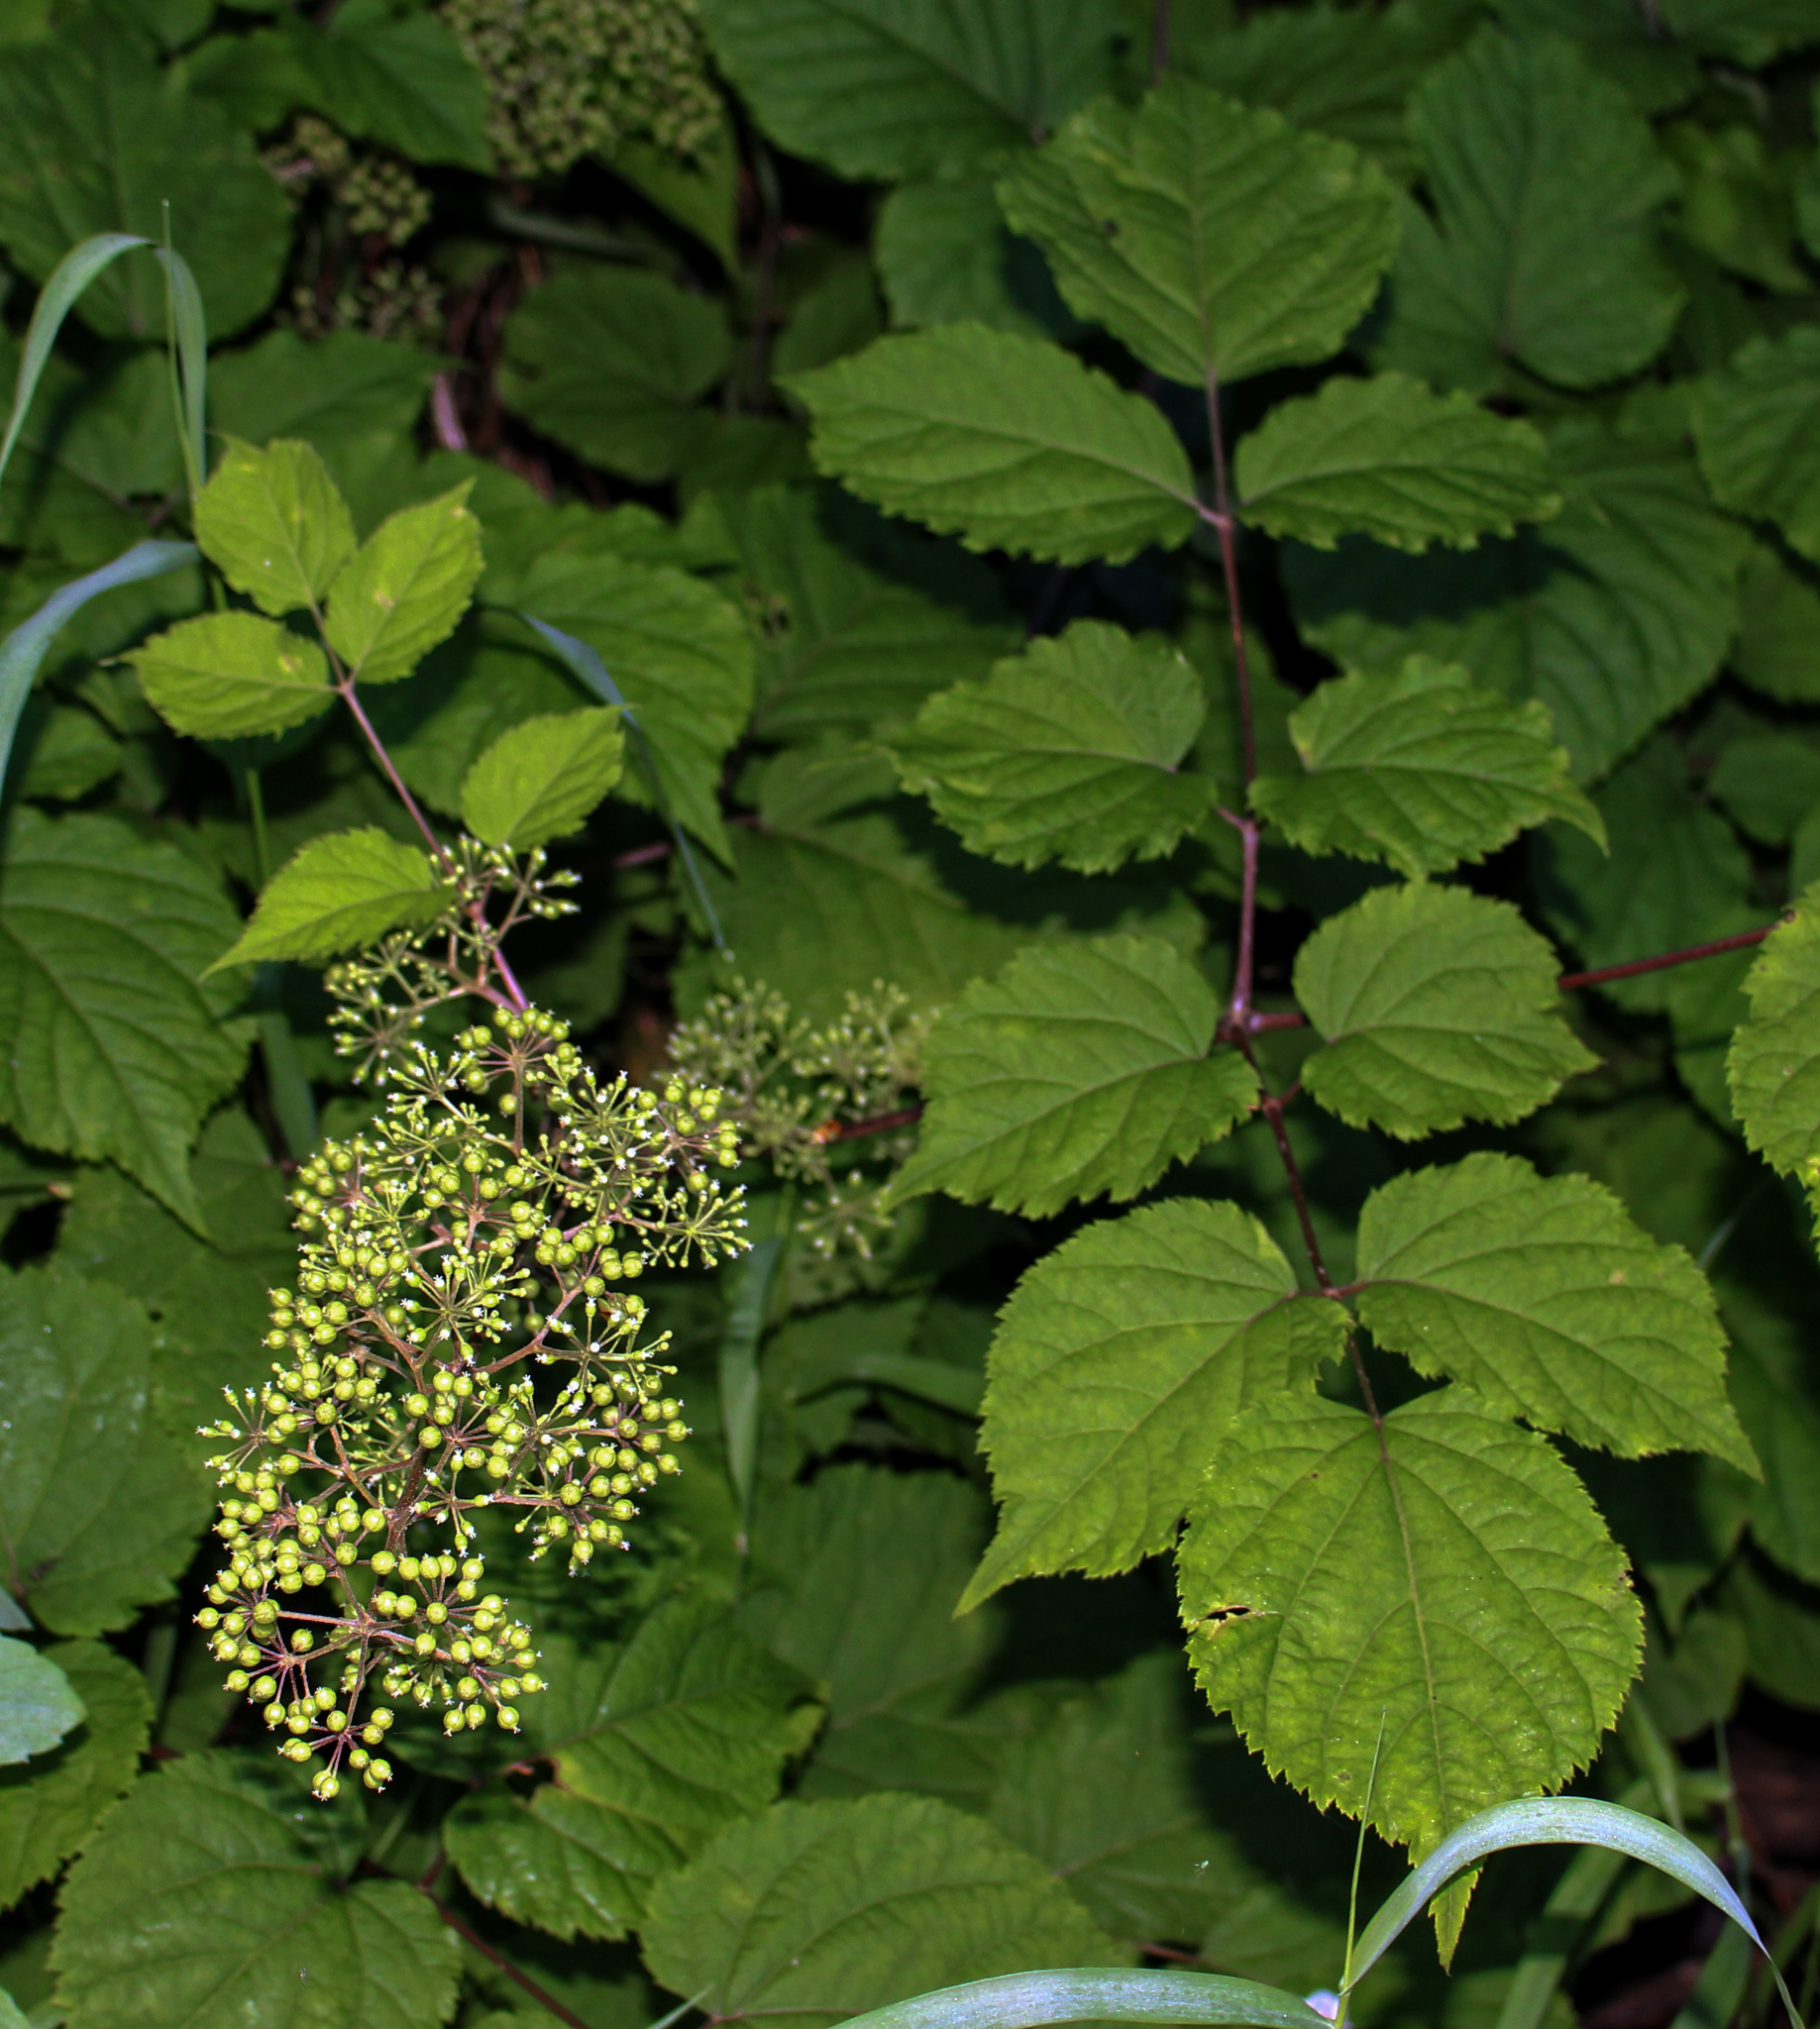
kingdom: Plantae
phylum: Tracheophyta
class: Magnoliopsida
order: Apiales
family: Araliaceae
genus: Aralia
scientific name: Aralia racemosa
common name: American-spikenard
